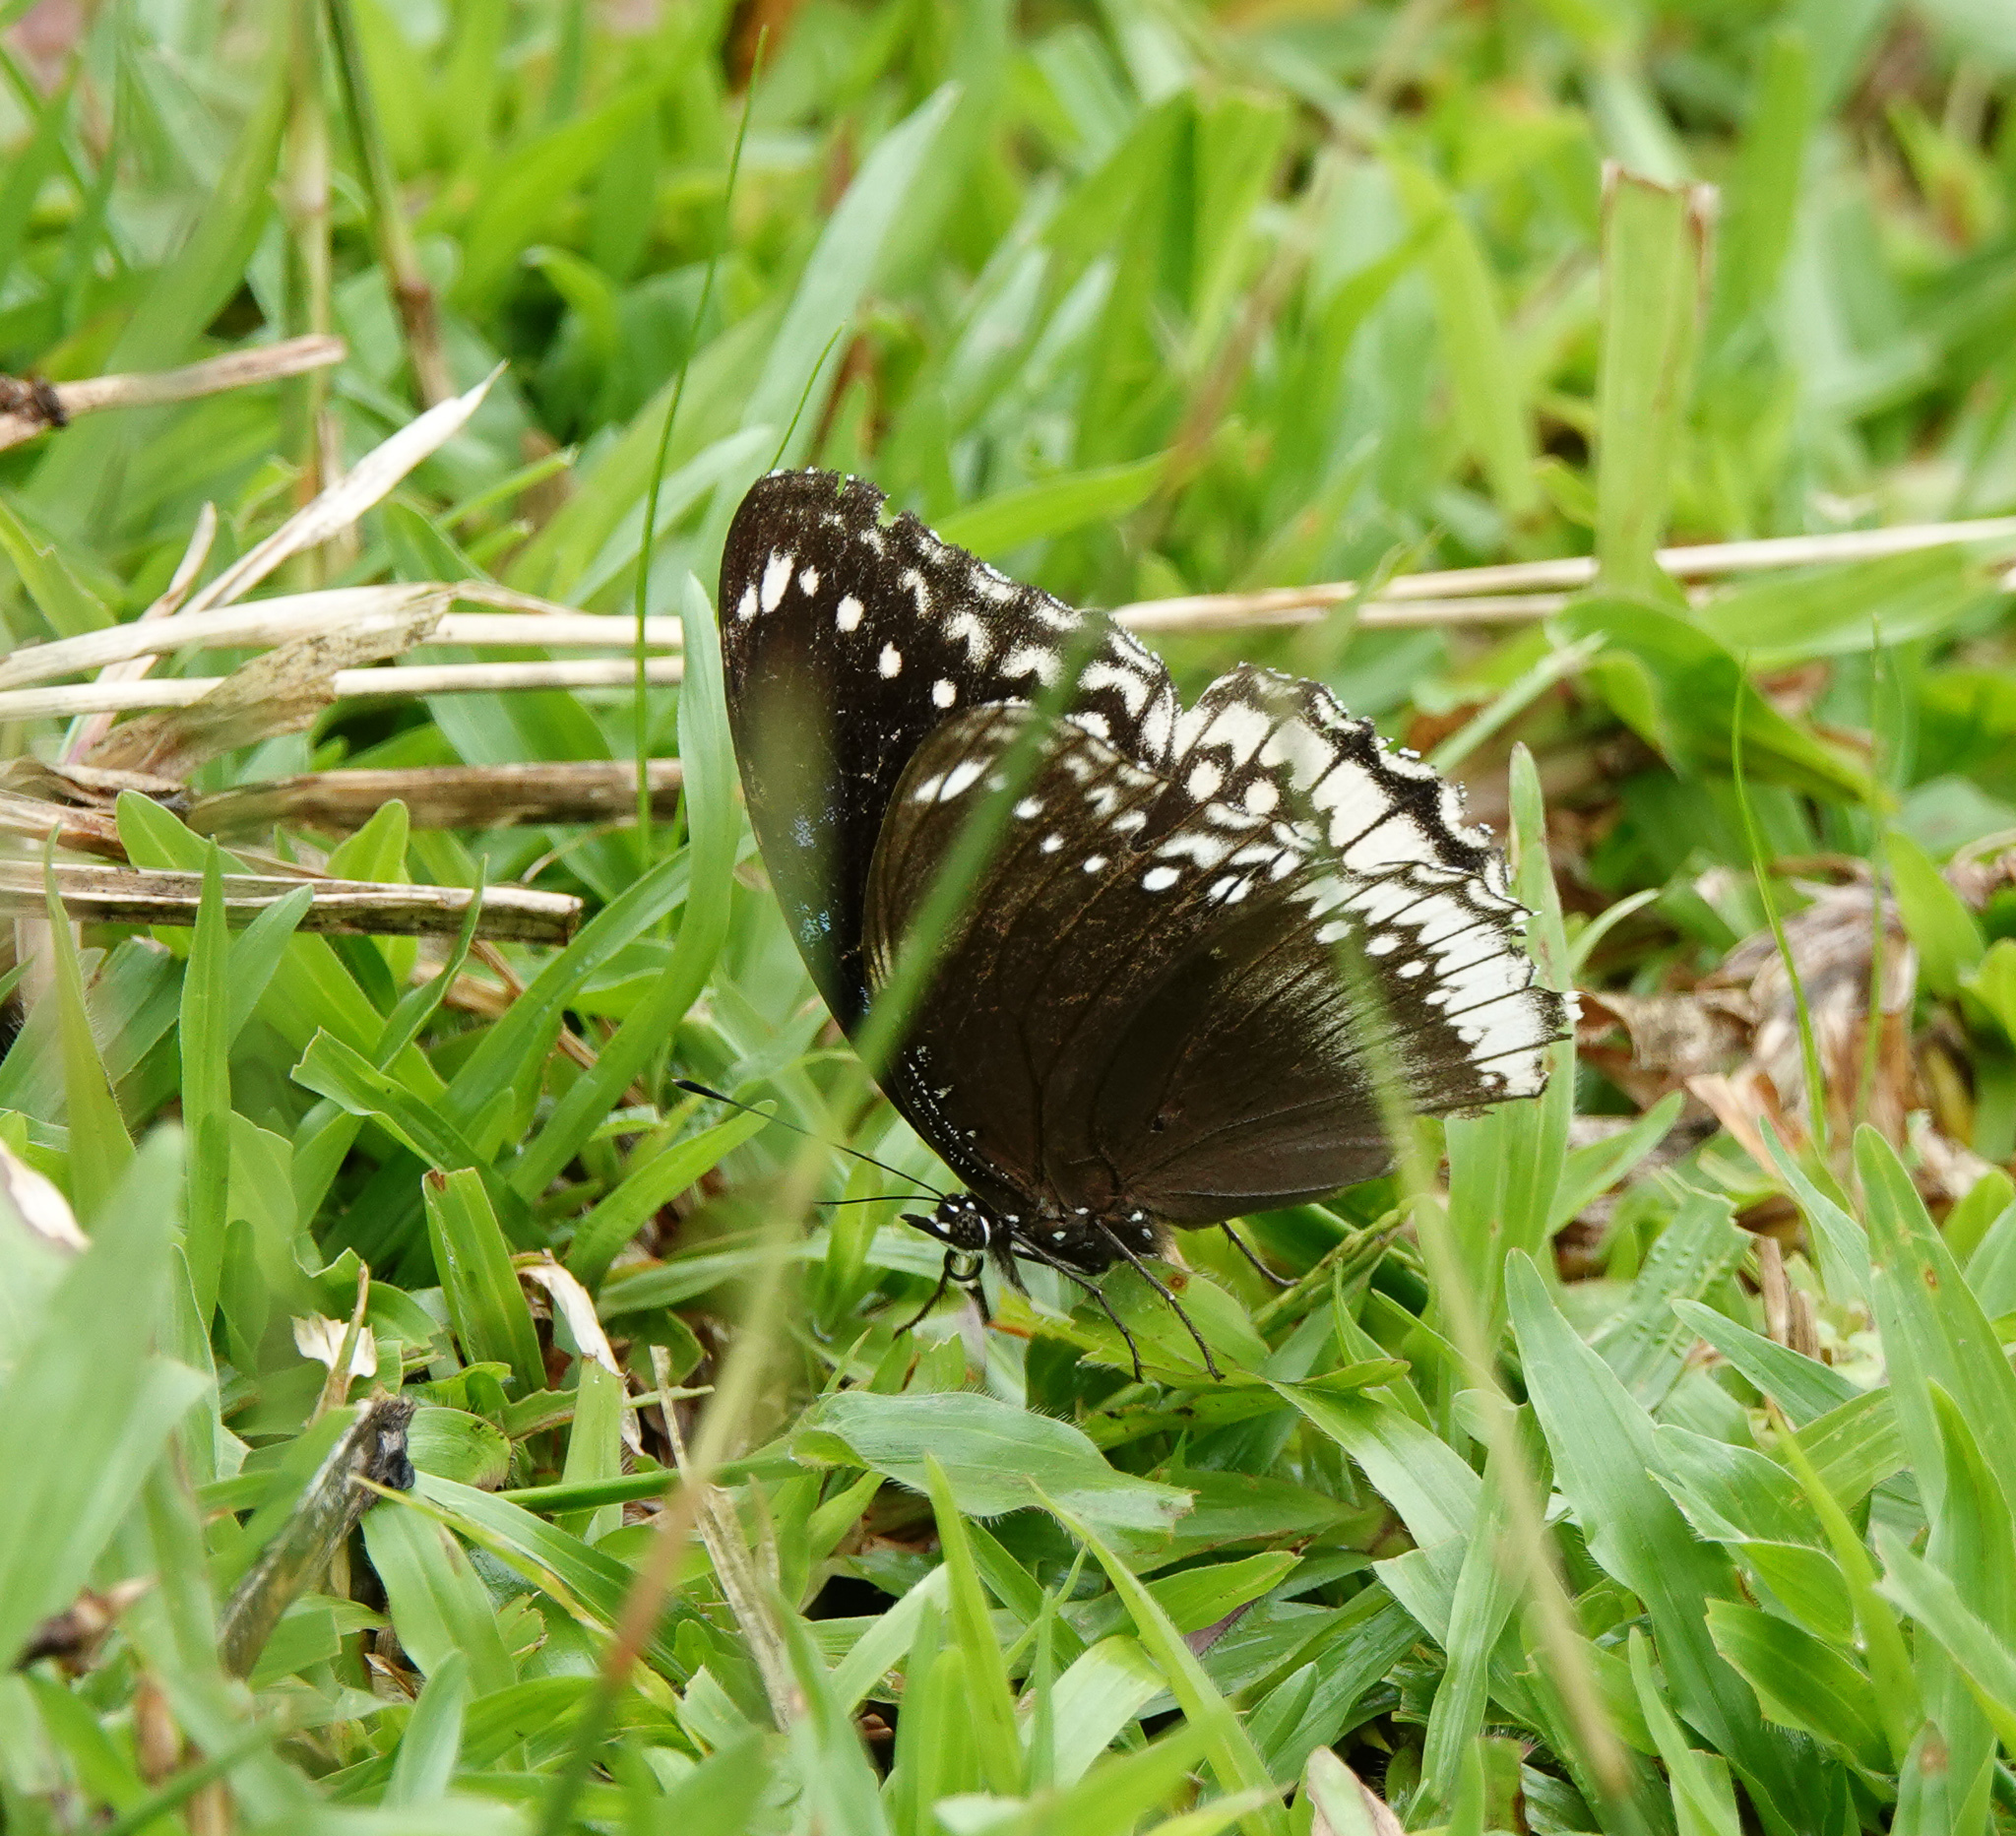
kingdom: Animalia
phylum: Arthropoda
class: Insecta
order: Lepidoptera
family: Nymphalidae
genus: Hypolimnas
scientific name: Hypolimnas bolina
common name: Great eggfly
